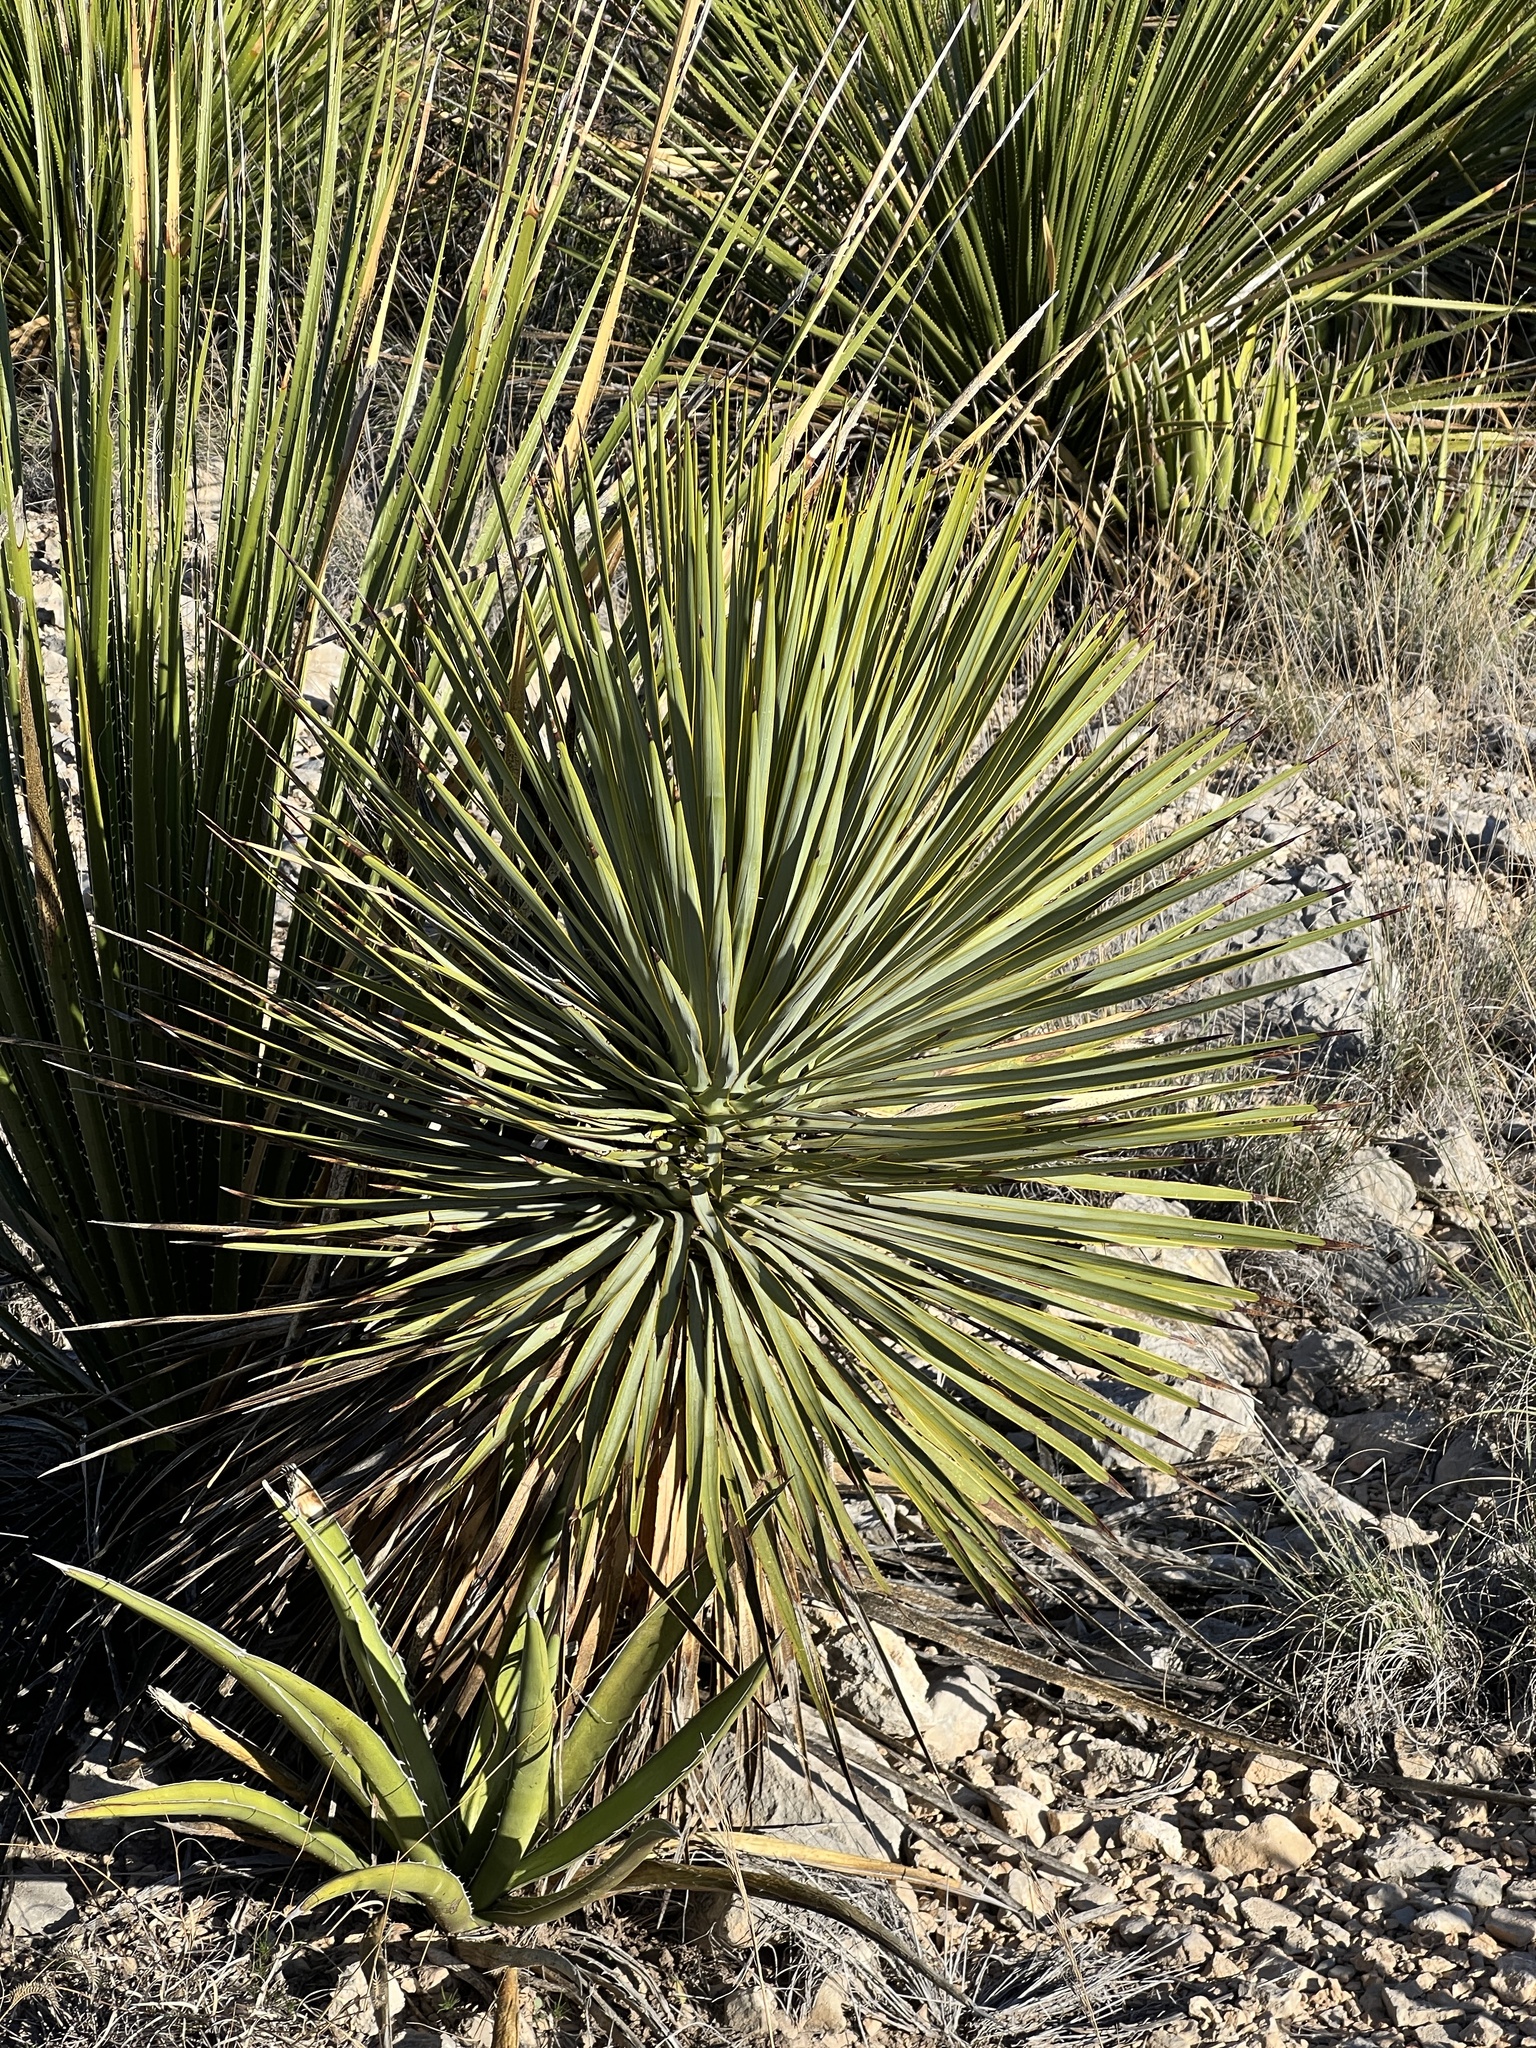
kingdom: Plantae
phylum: Tracheophyta
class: Liliopsida
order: Asparagales
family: Asparagaceae
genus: Yucca
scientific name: Yucca thompsoniana
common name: Trans-pecos yucca
